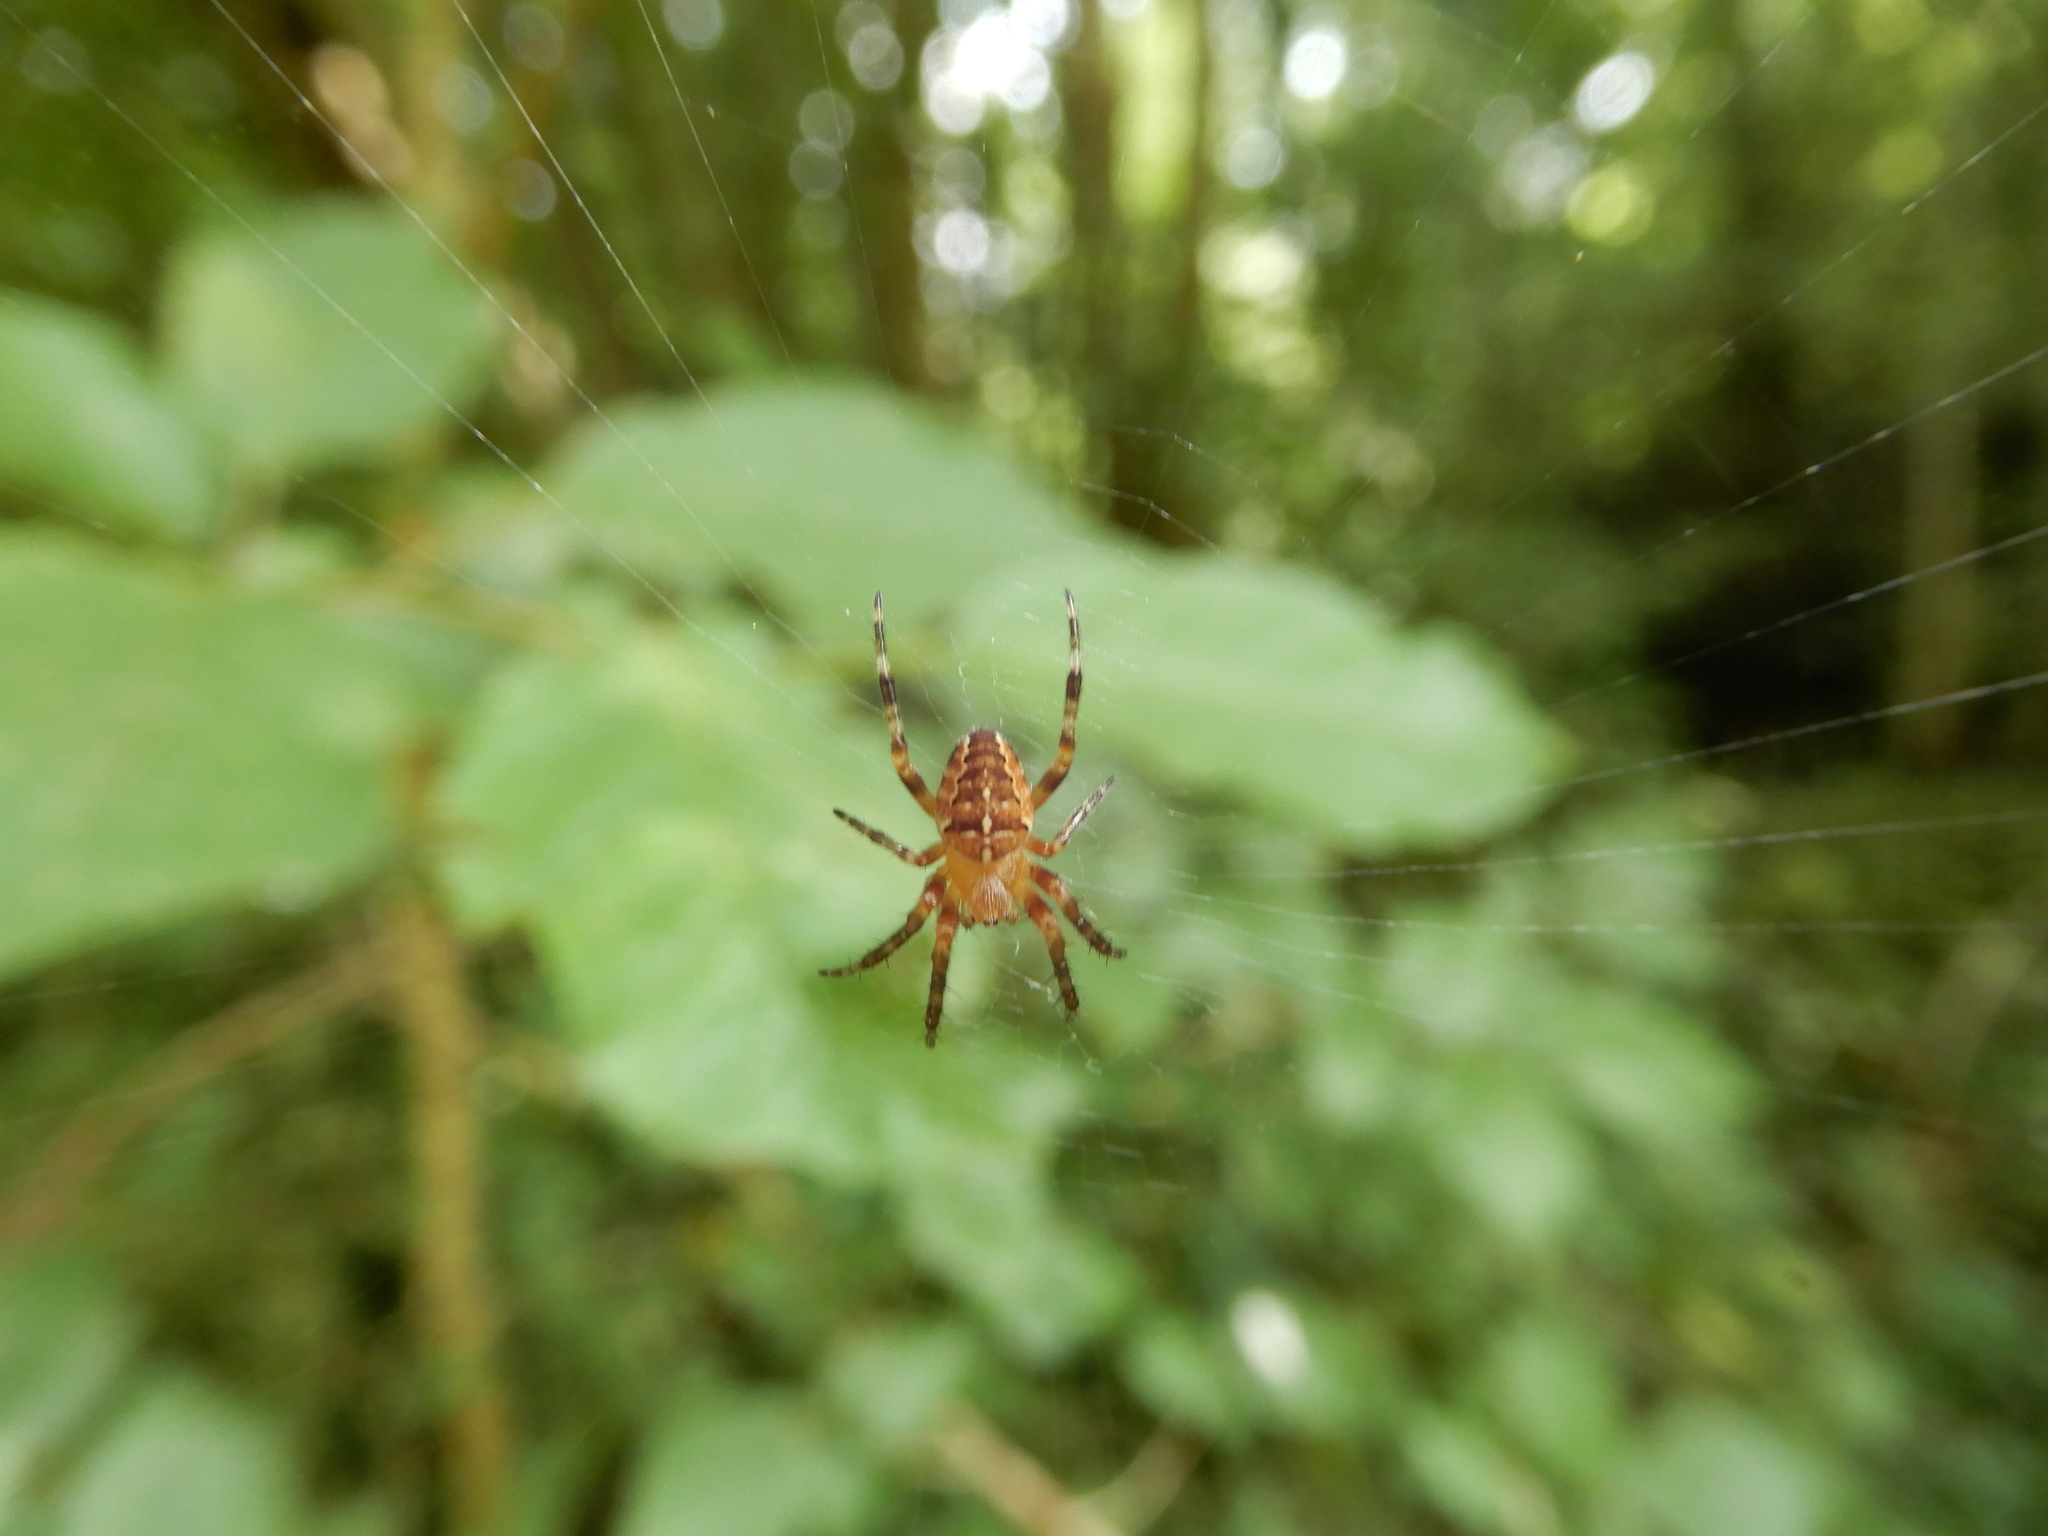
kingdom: Animalia
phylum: Arthropoda
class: Arachnida
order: Araneae
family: Araneidae
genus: Araneus
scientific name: Araneus diadematus
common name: Cross orbweaver
